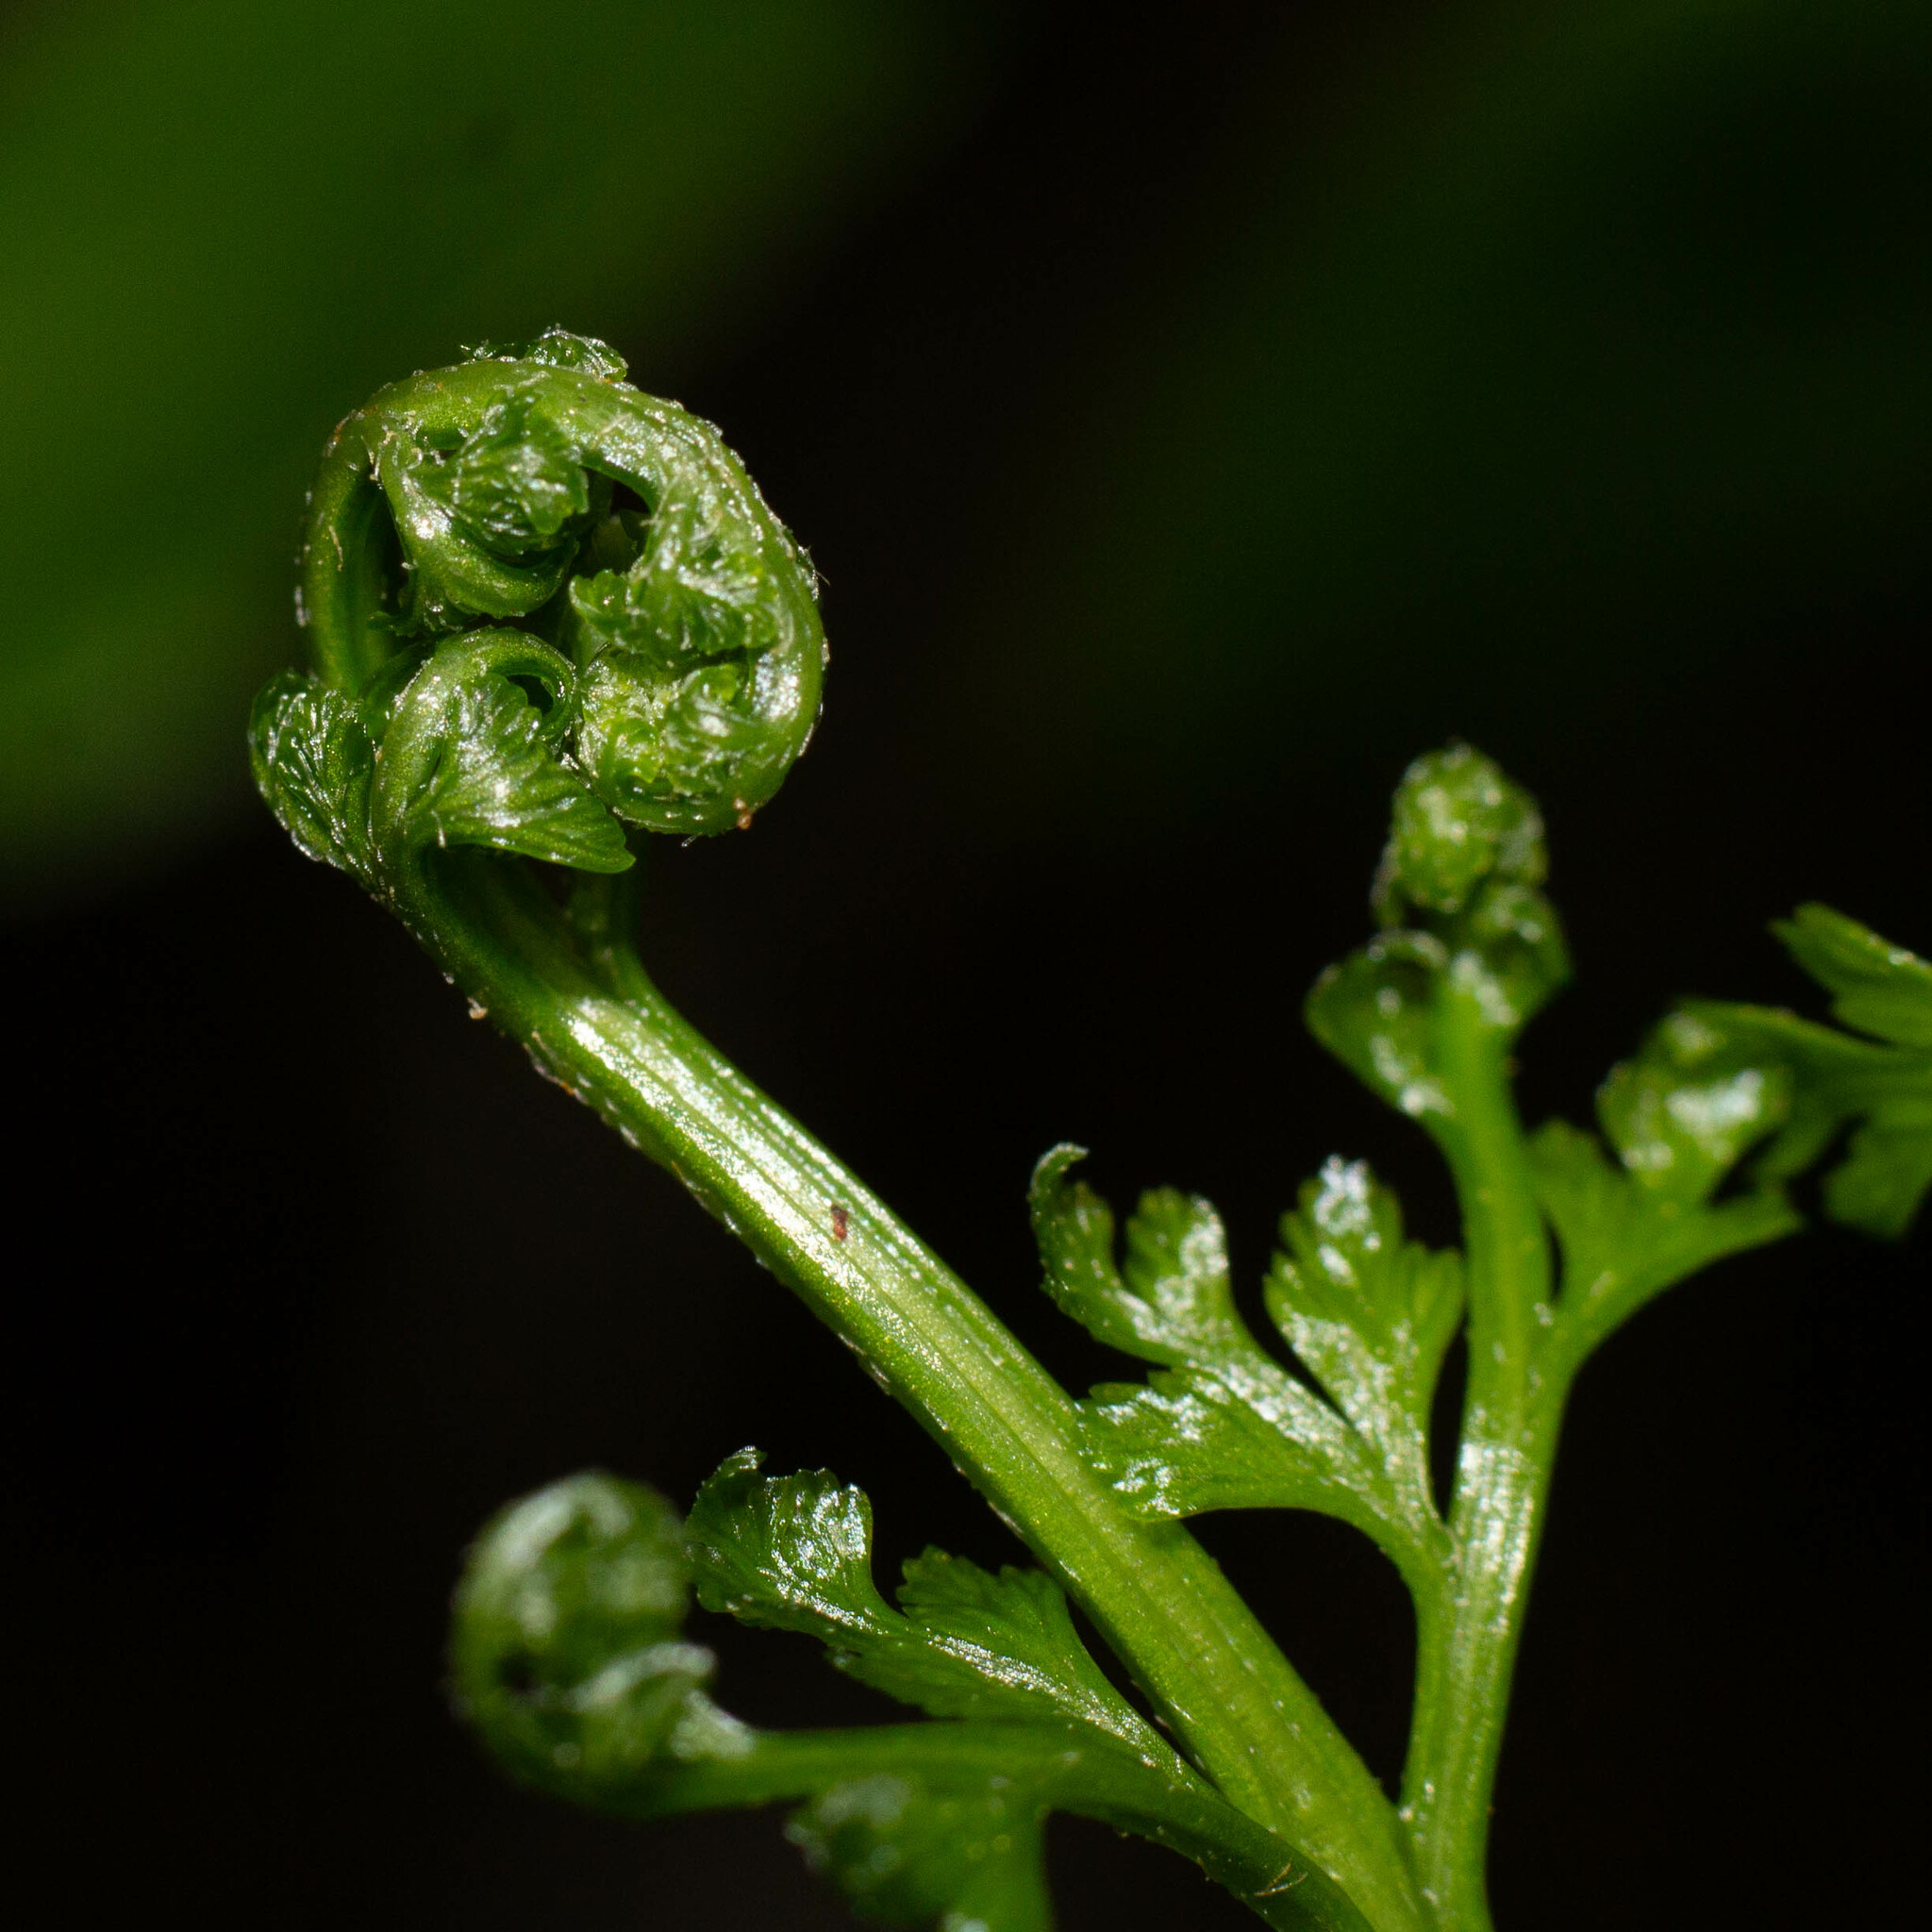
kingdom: Plantae
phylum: Tracheophyta
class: Polypodiopsida
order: Polypodiales
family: Aspleniaceae
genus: Asplenium
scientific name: Asplenium onopteris
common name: Irish spleenwort
